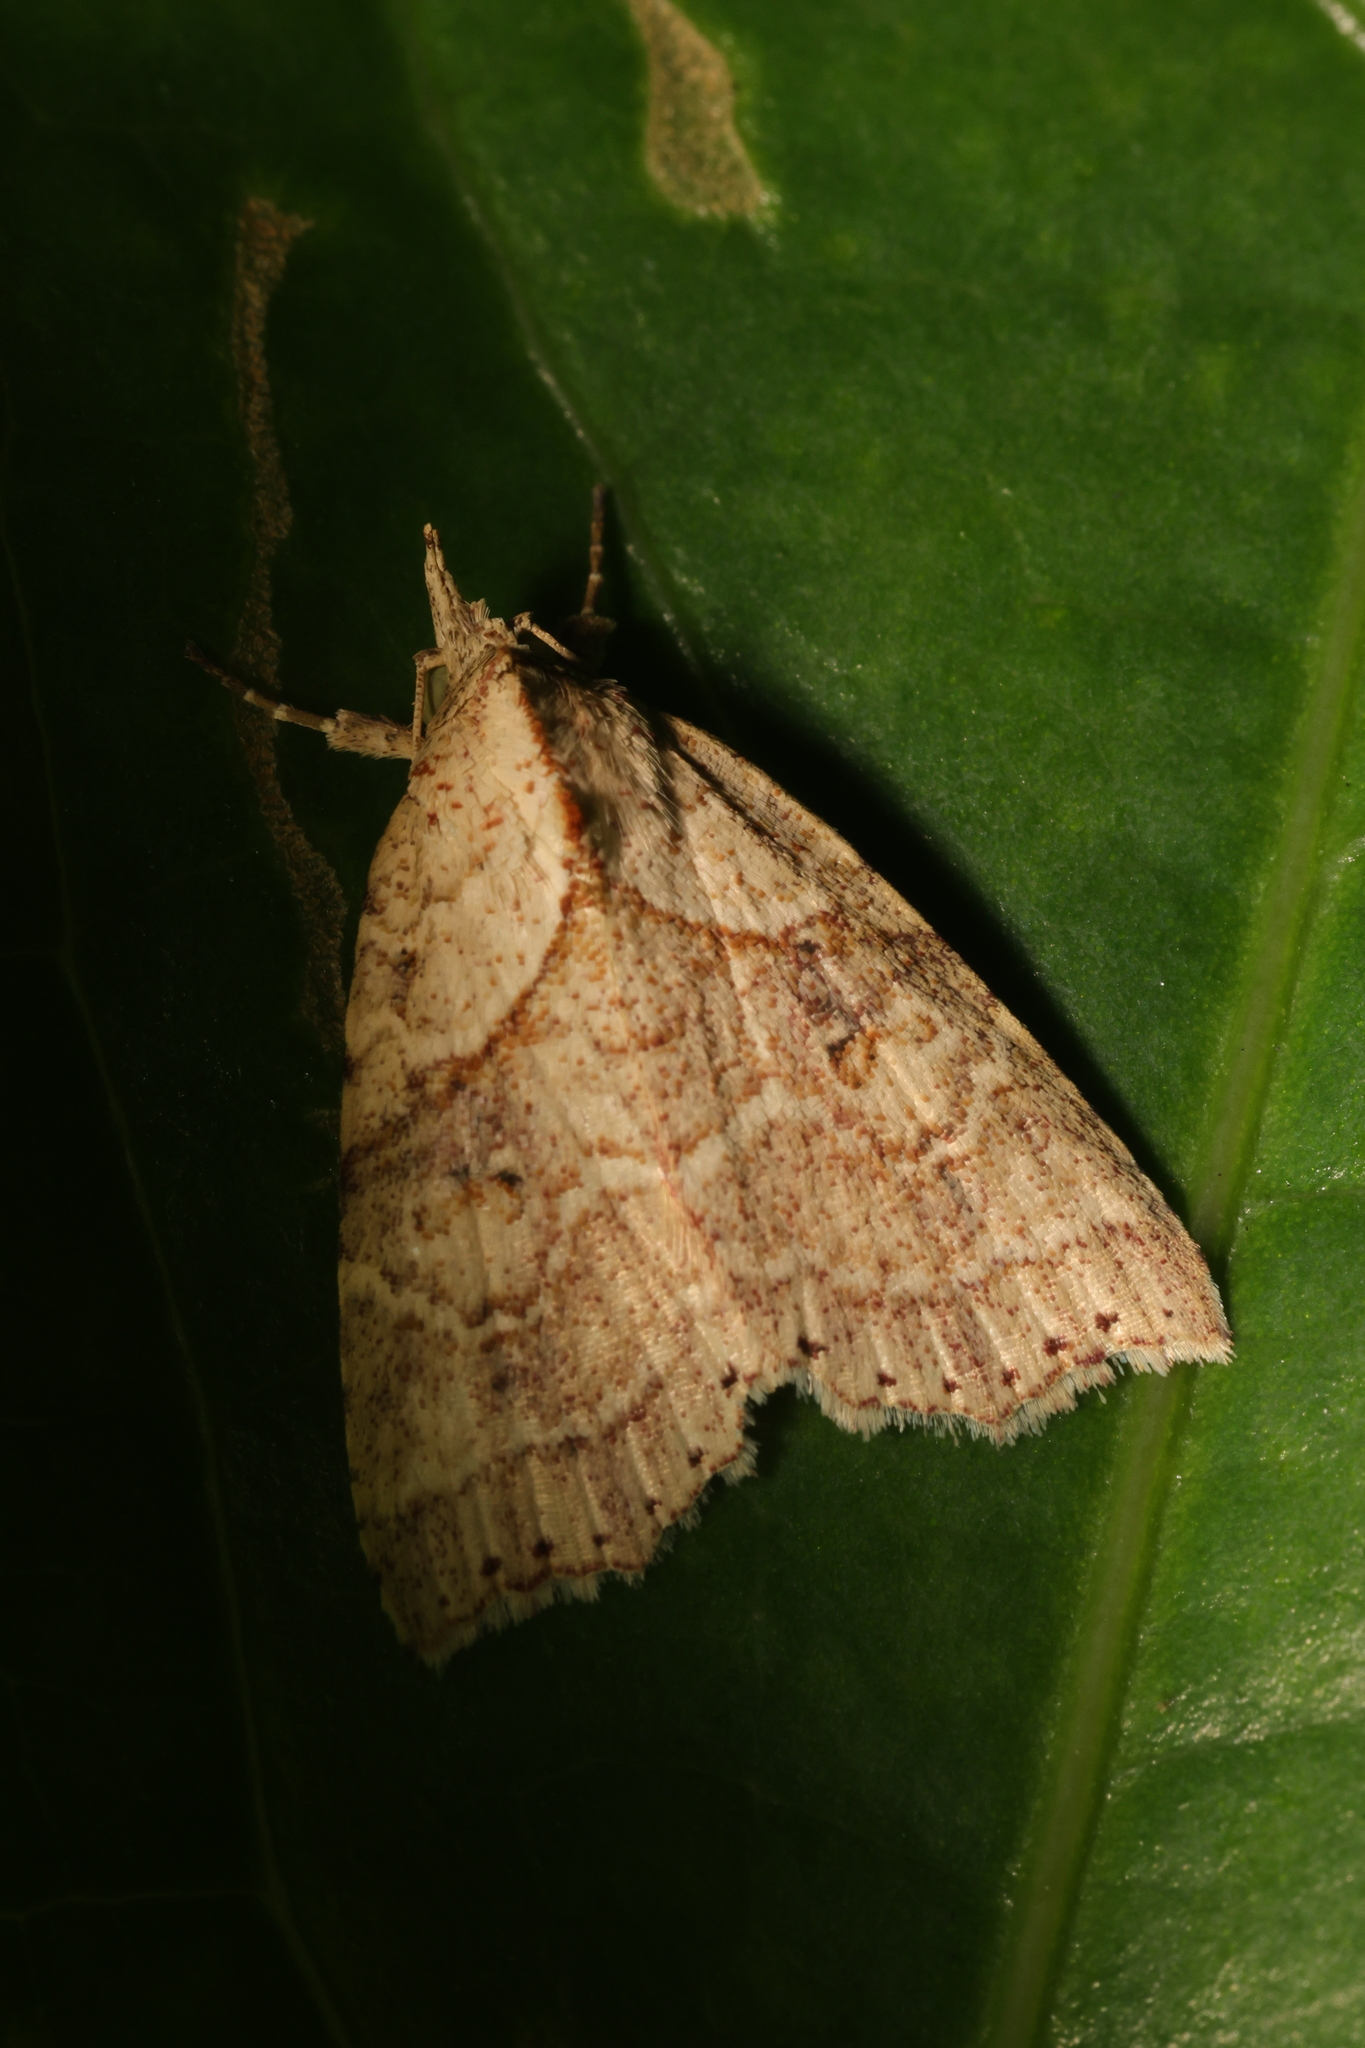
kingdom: Animalia
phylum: Arthropoda
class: Insecta
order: Lepidoptera
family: Erebidae
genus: Olulis
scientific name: Olulis puncticinctalis
